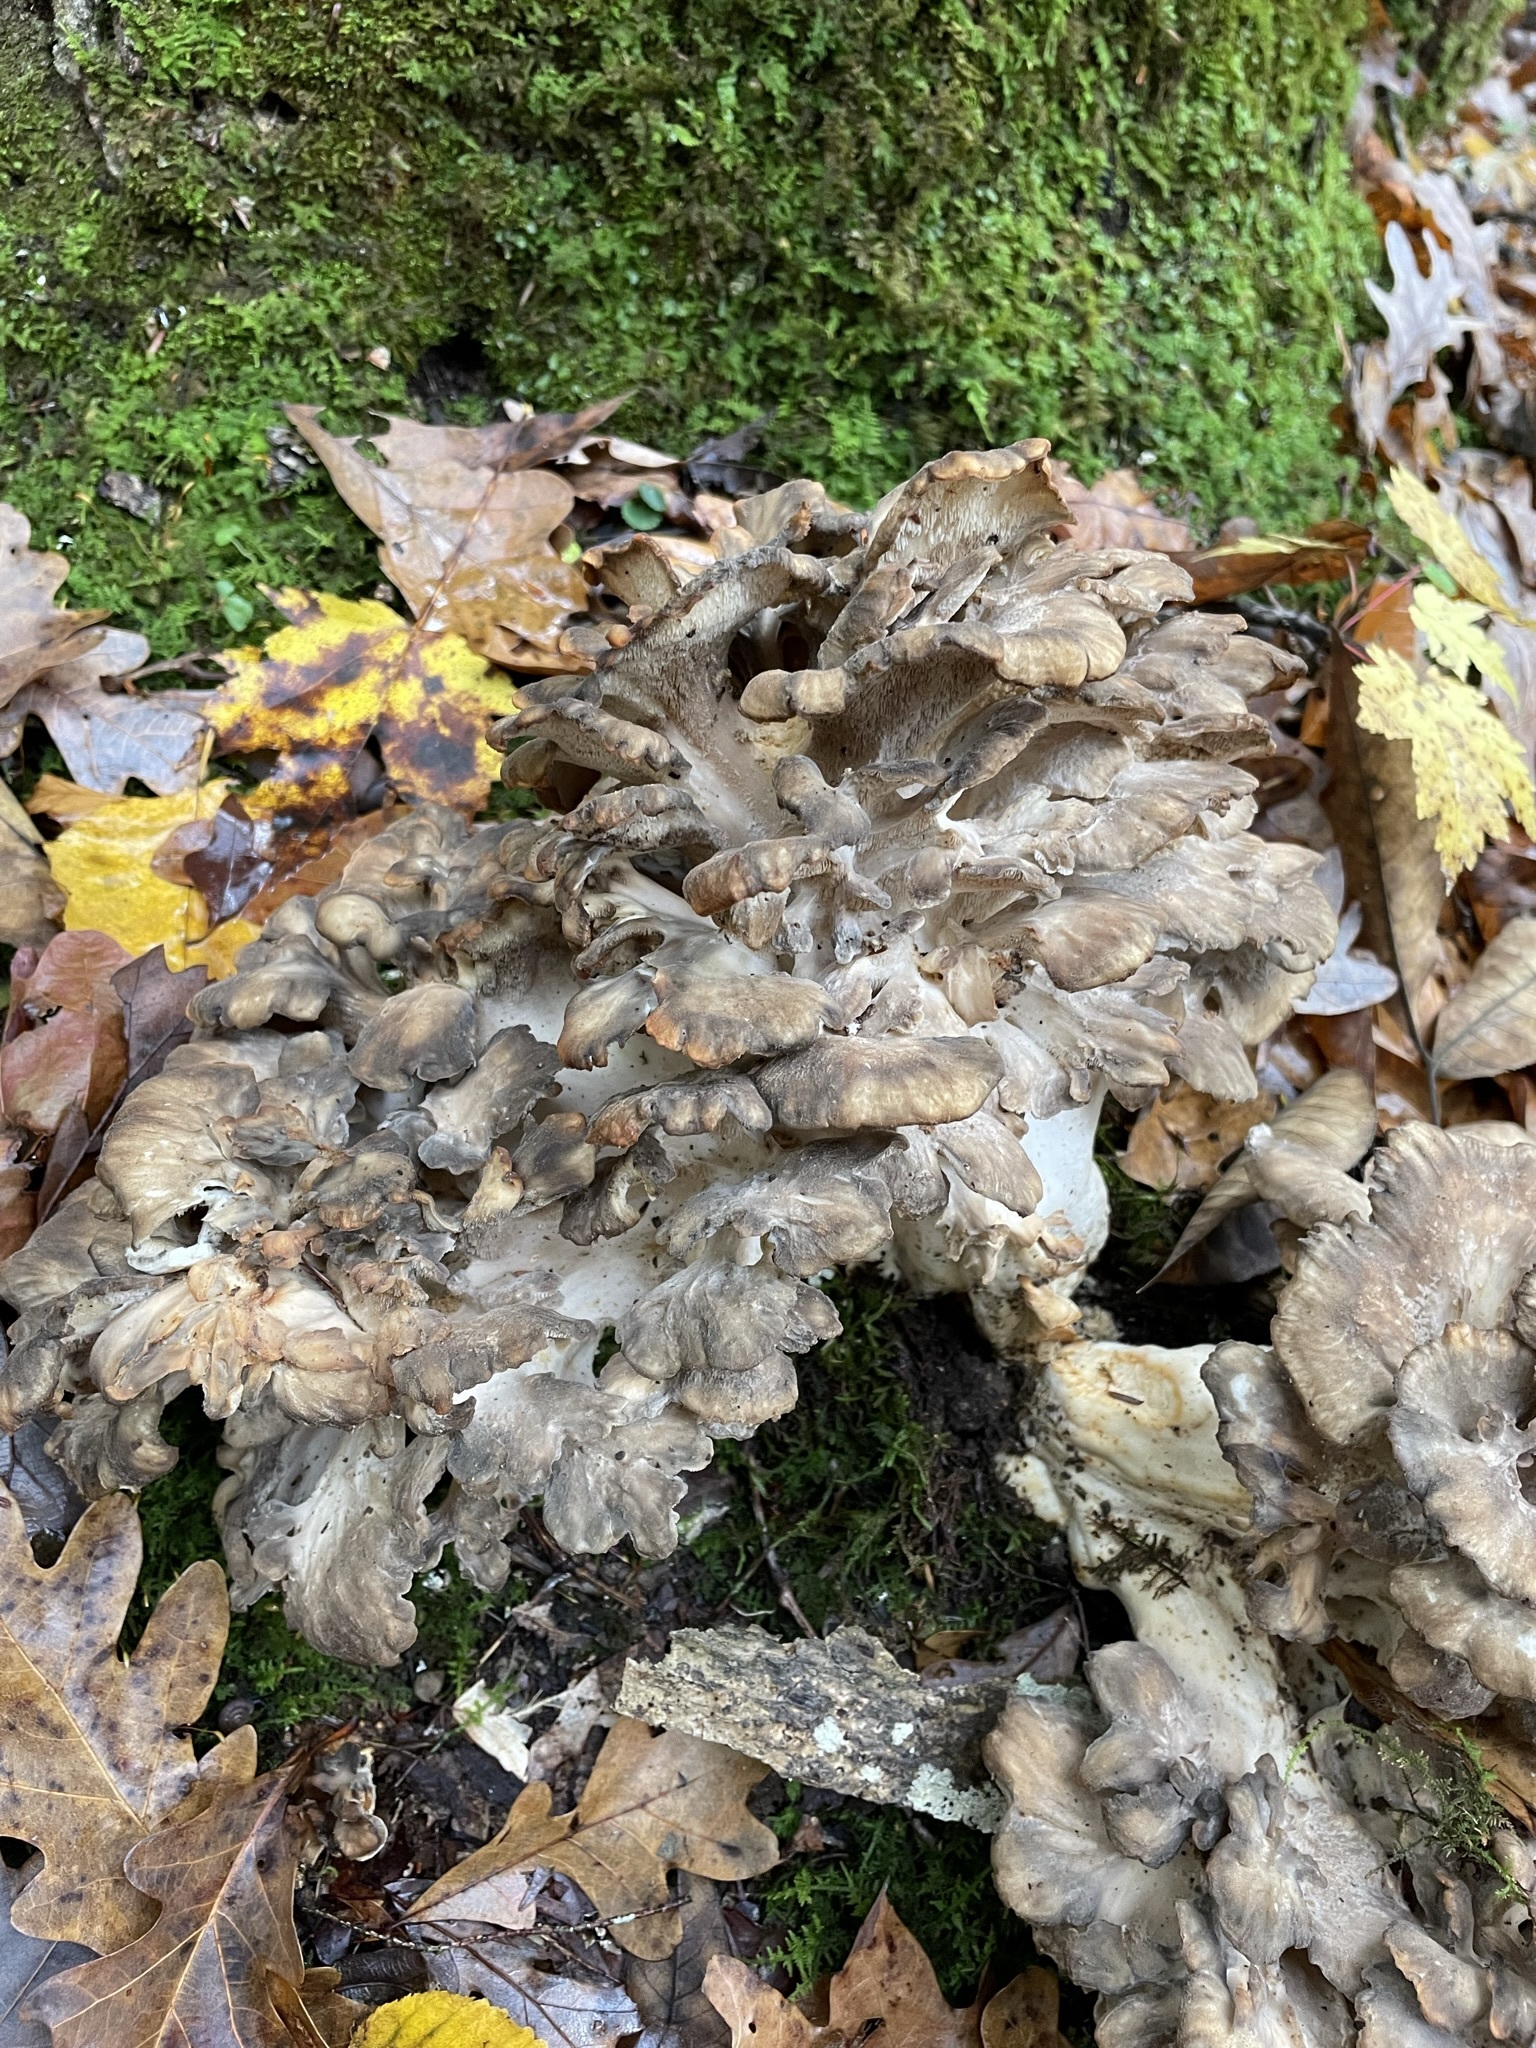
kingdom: Fungi
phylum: Basidiomycota
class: Agaricomycetes
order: Polyporales
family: Grifolaceae
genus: Grifola
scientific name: Grifola frondosa
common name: Hen of the woods
